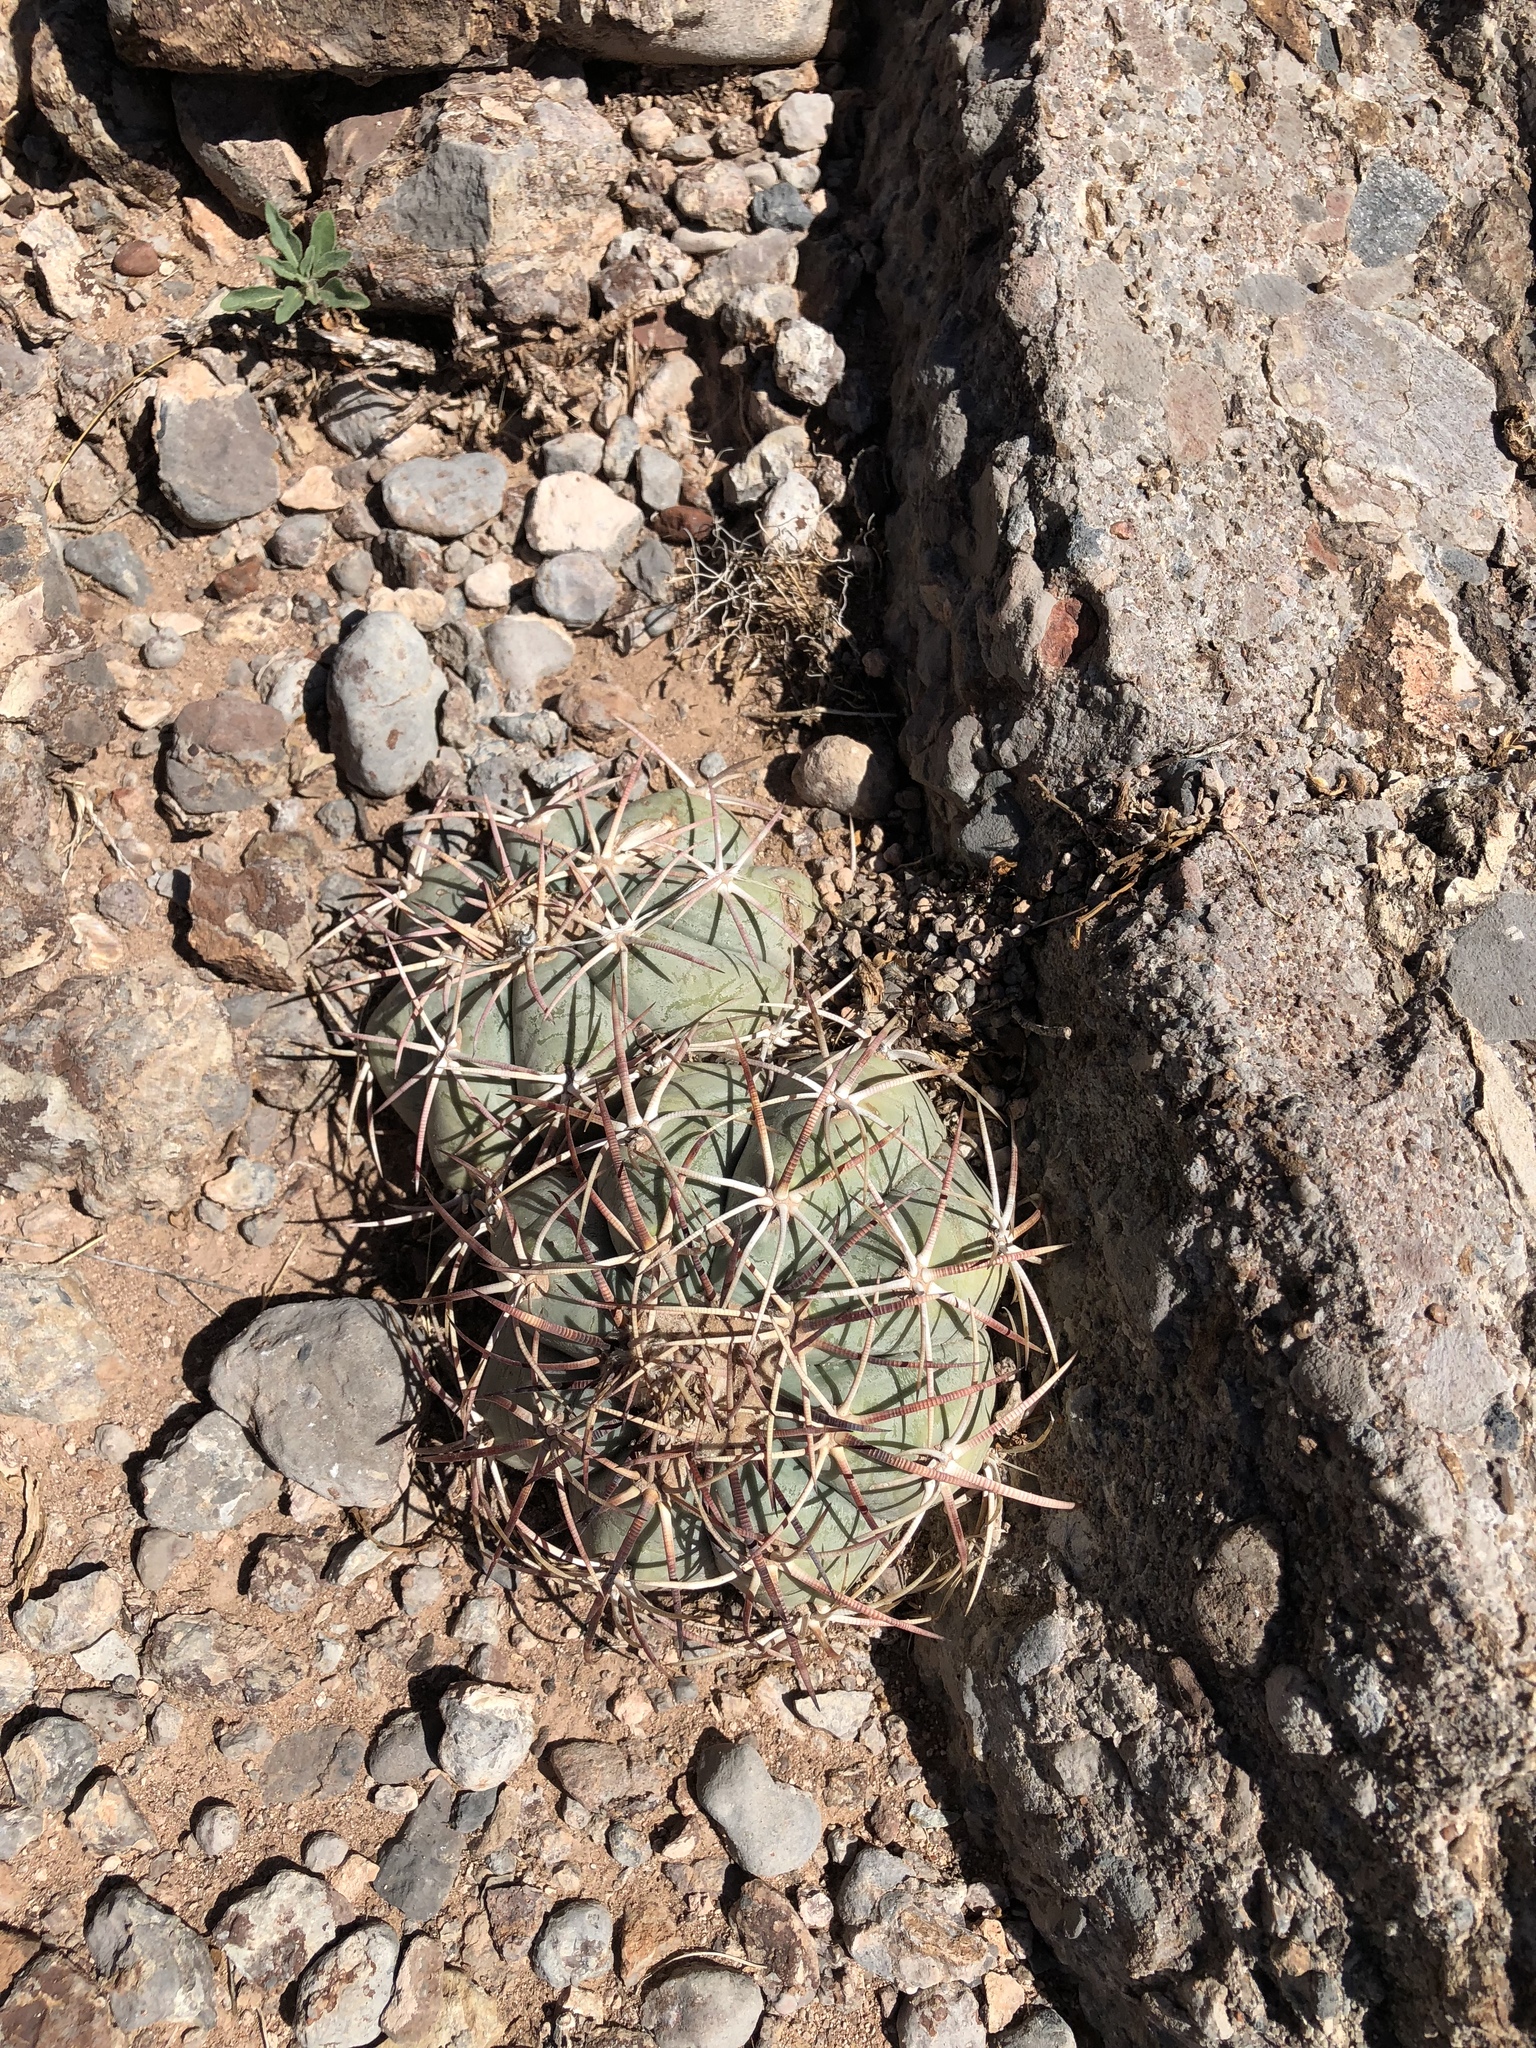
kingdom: Plantae
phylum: Tracheophyta
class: Magnoliopsida
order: Caryophyllales
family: Cactaceae
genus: Echinocactus
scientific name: Echinocactus horizonthalonius
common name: Devilshead
